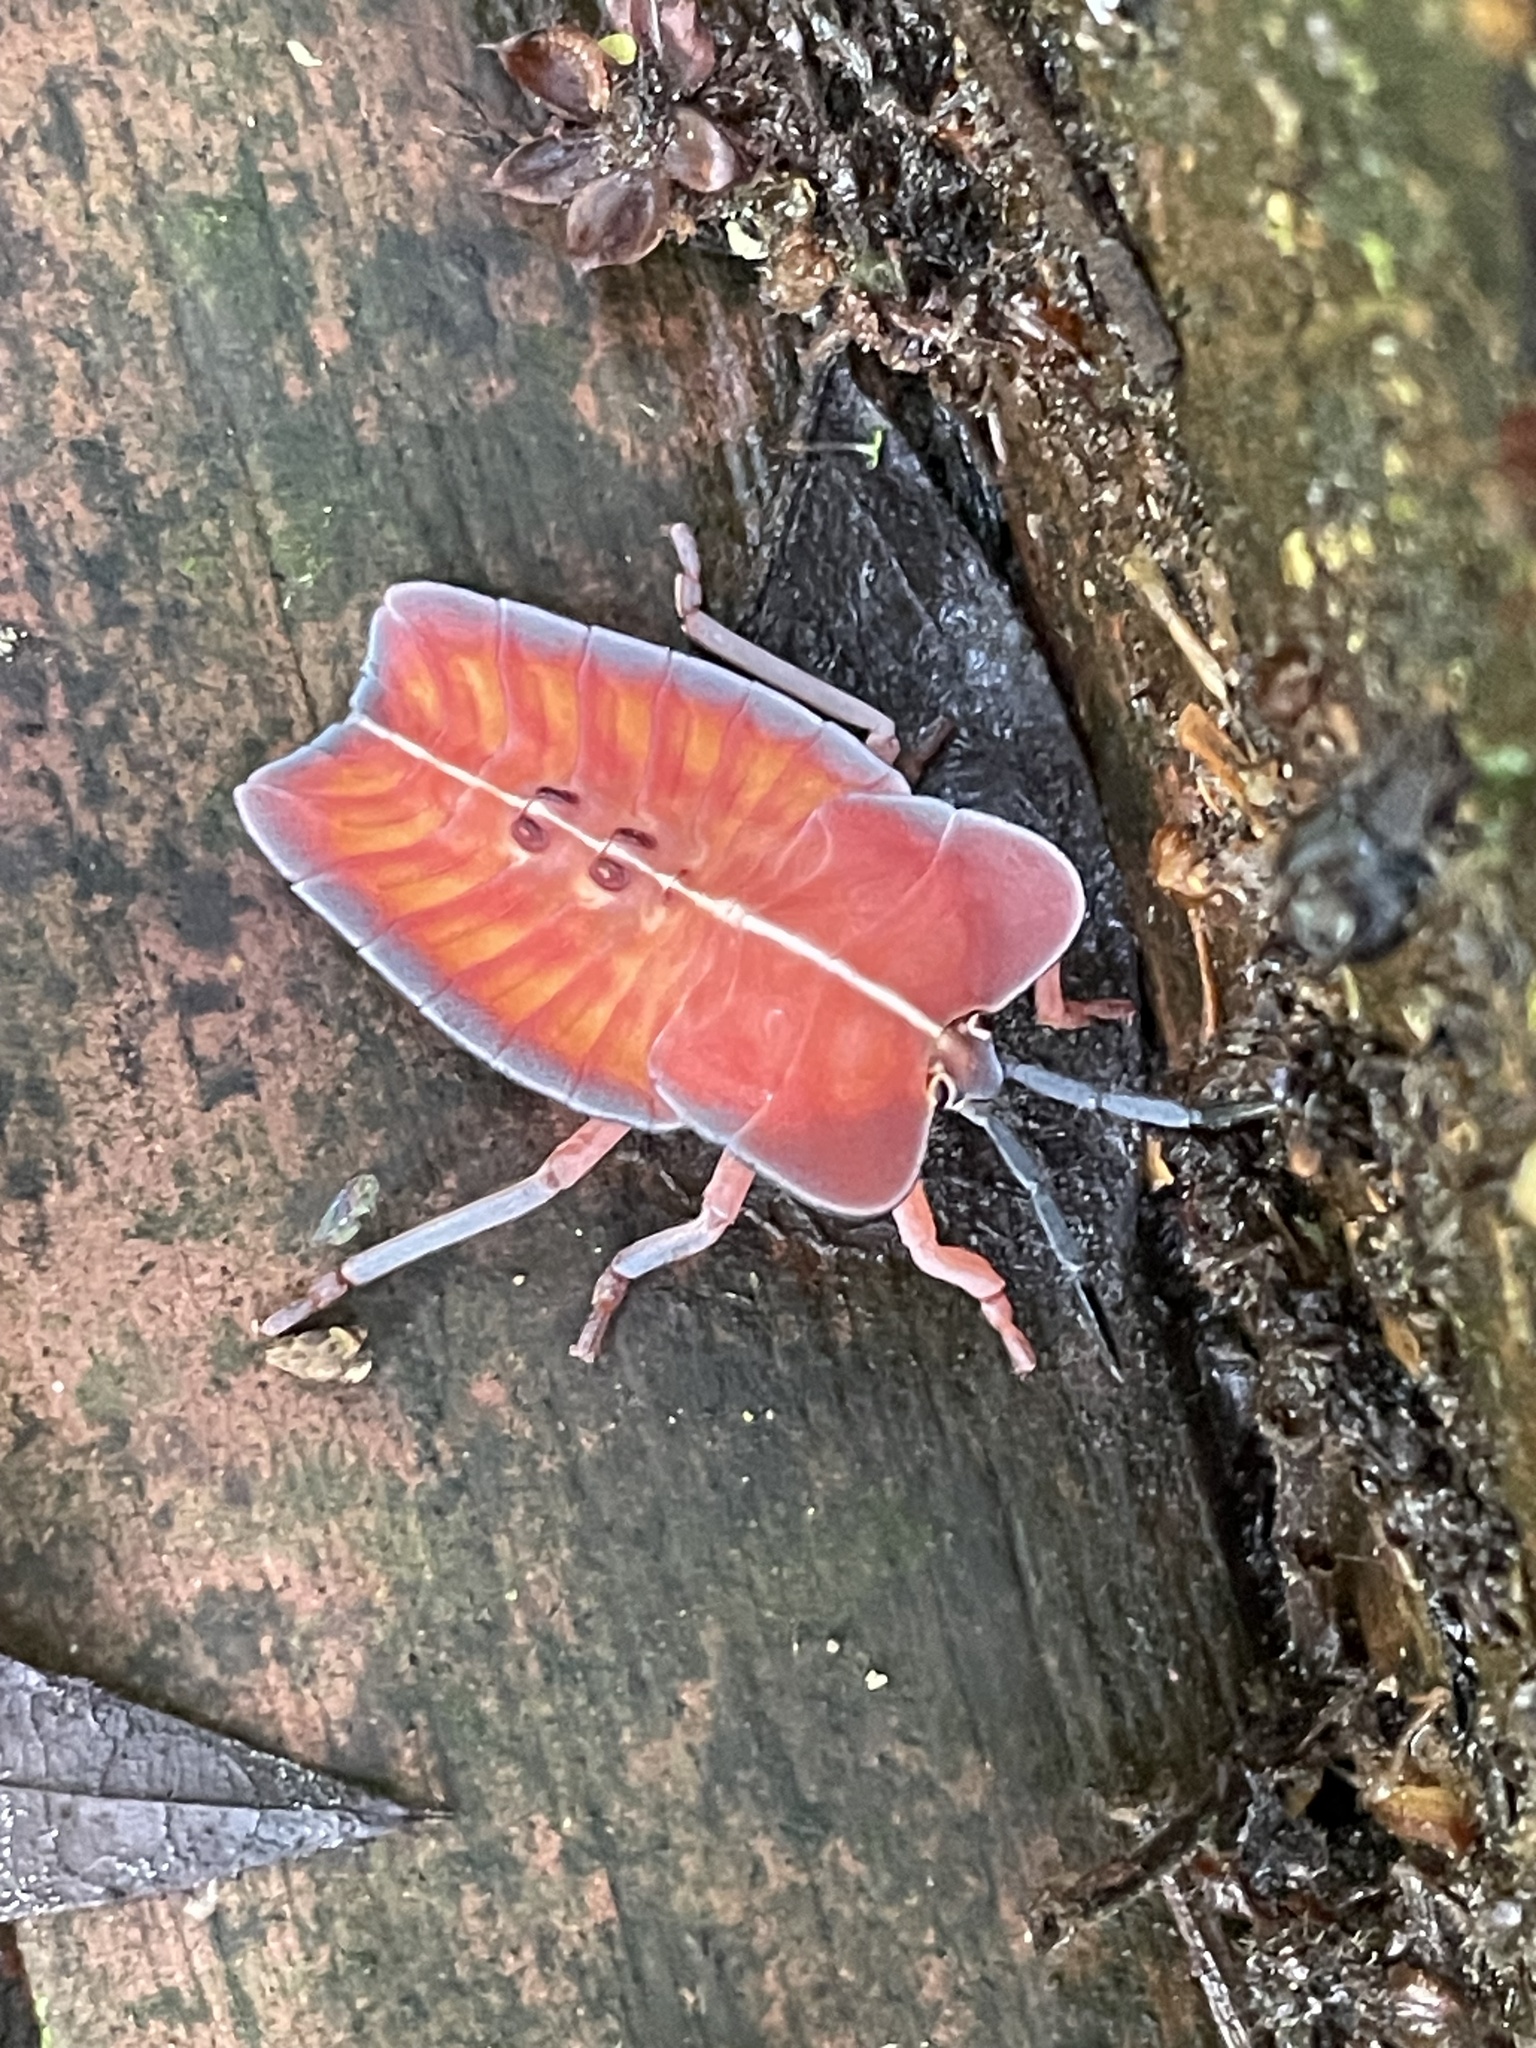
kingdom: Animalia
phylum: Arthropoda
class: Insecta
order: Hemiptera
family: Tessaratomidae
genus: Tessaratoma
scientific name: Tessaratoma papillosa
